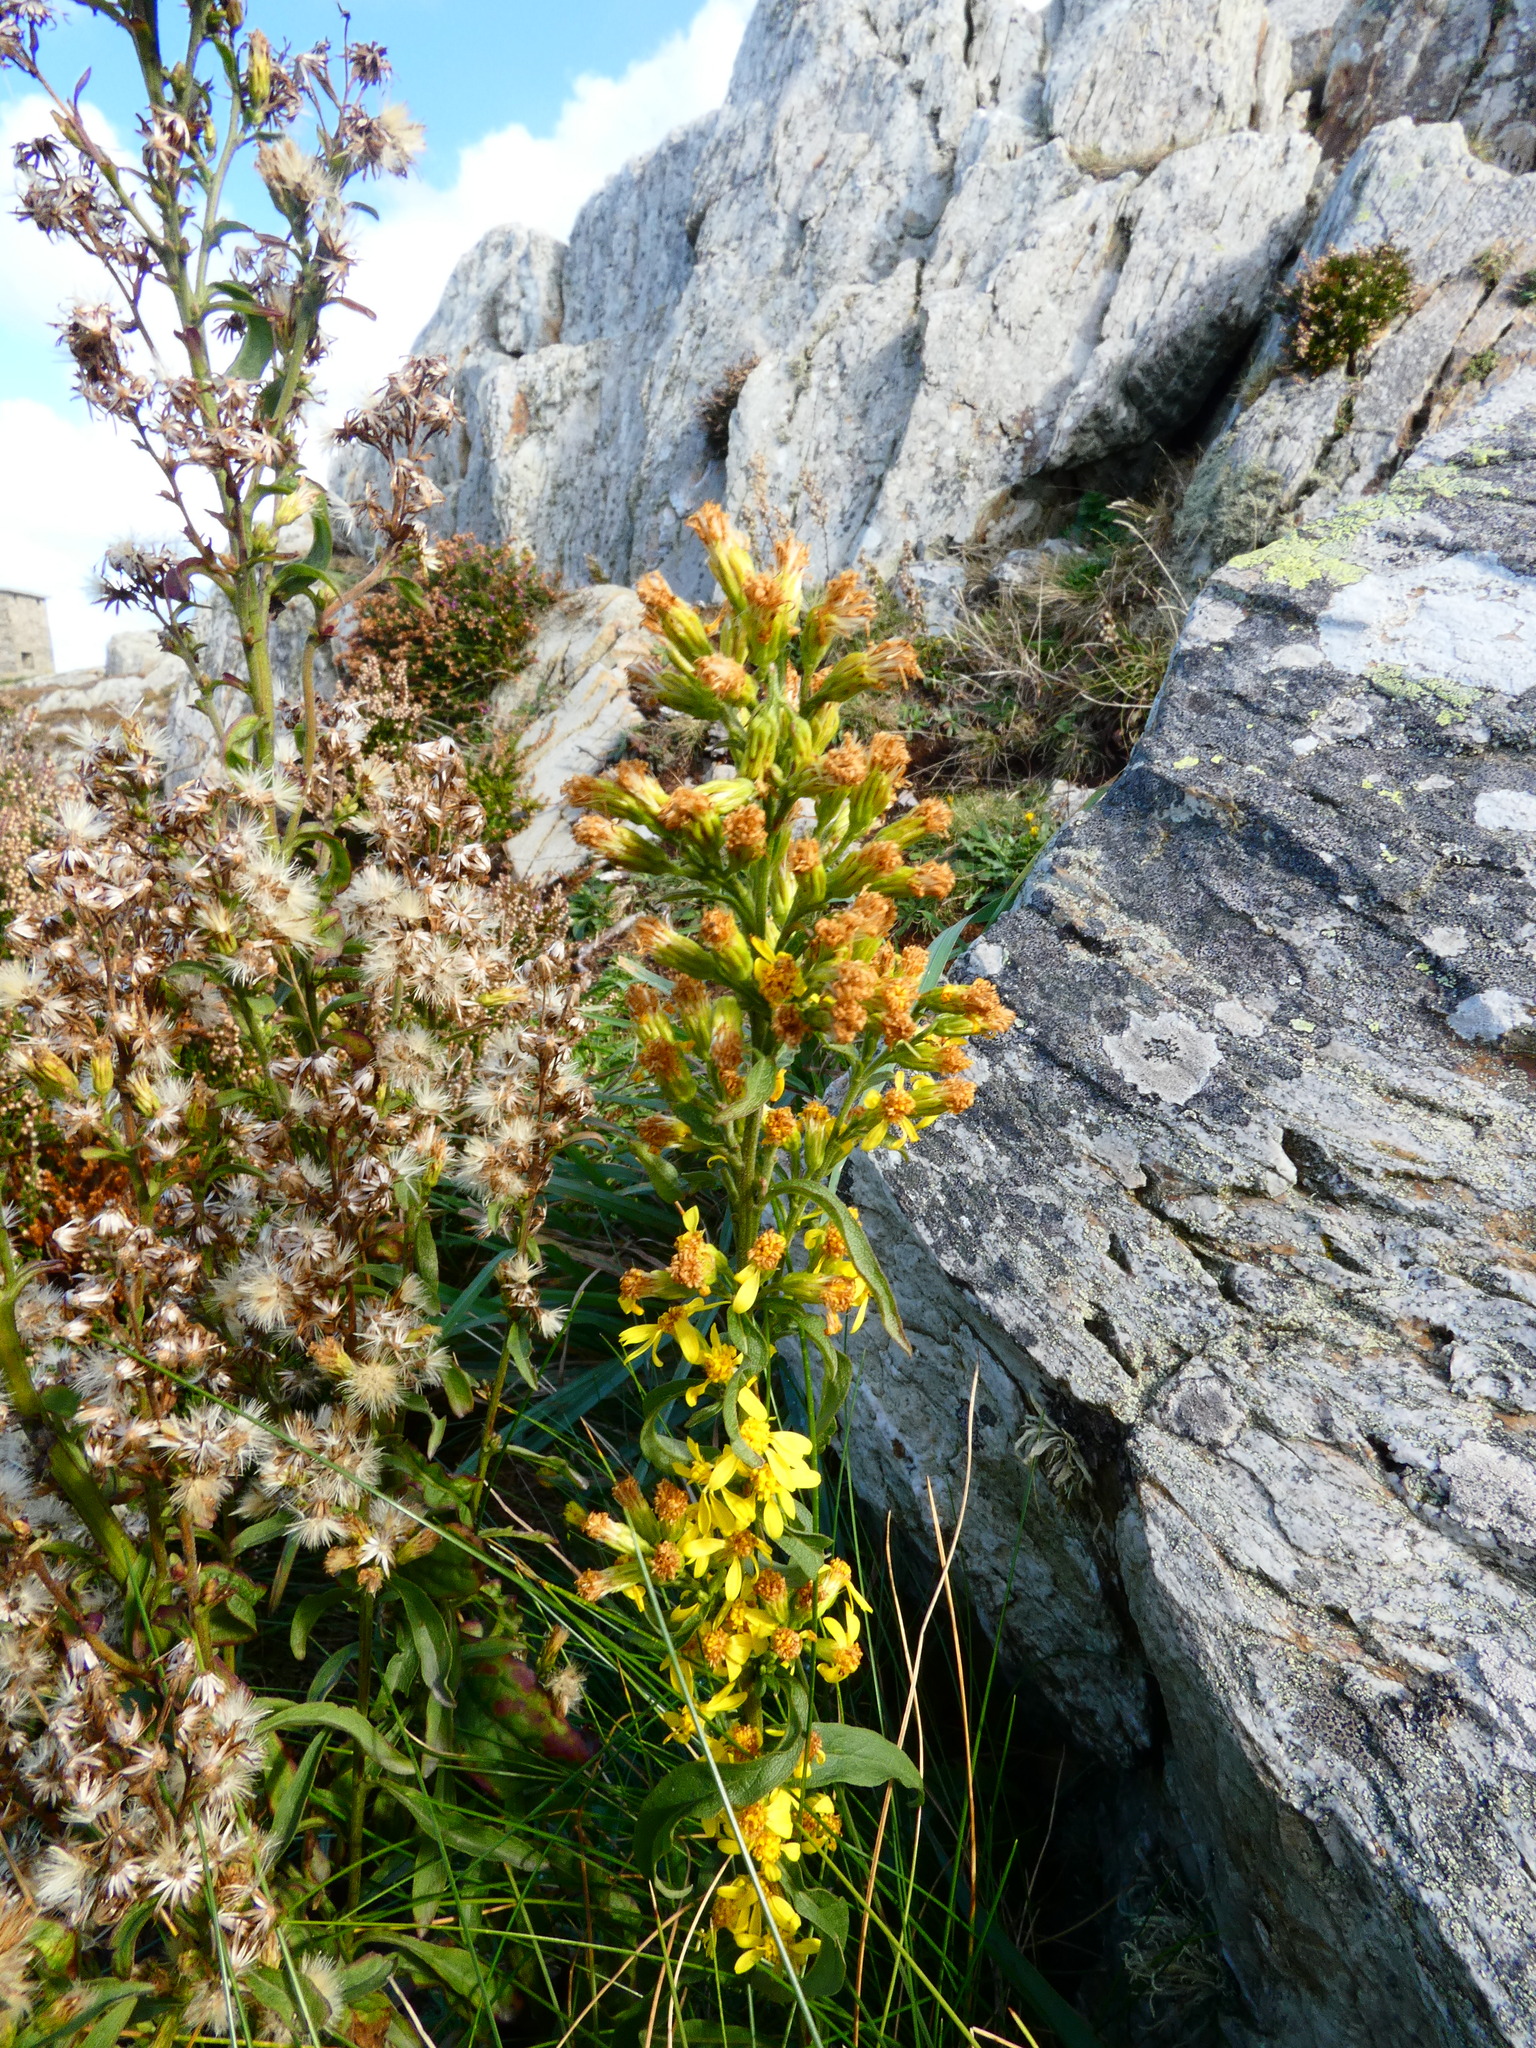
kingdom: Plantae
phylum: Tracheophyta
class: Magnoliopsida
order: Asterales
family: Asteraceae
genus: Solidago
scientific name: Solidago virgaurea
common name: Goldenrod
